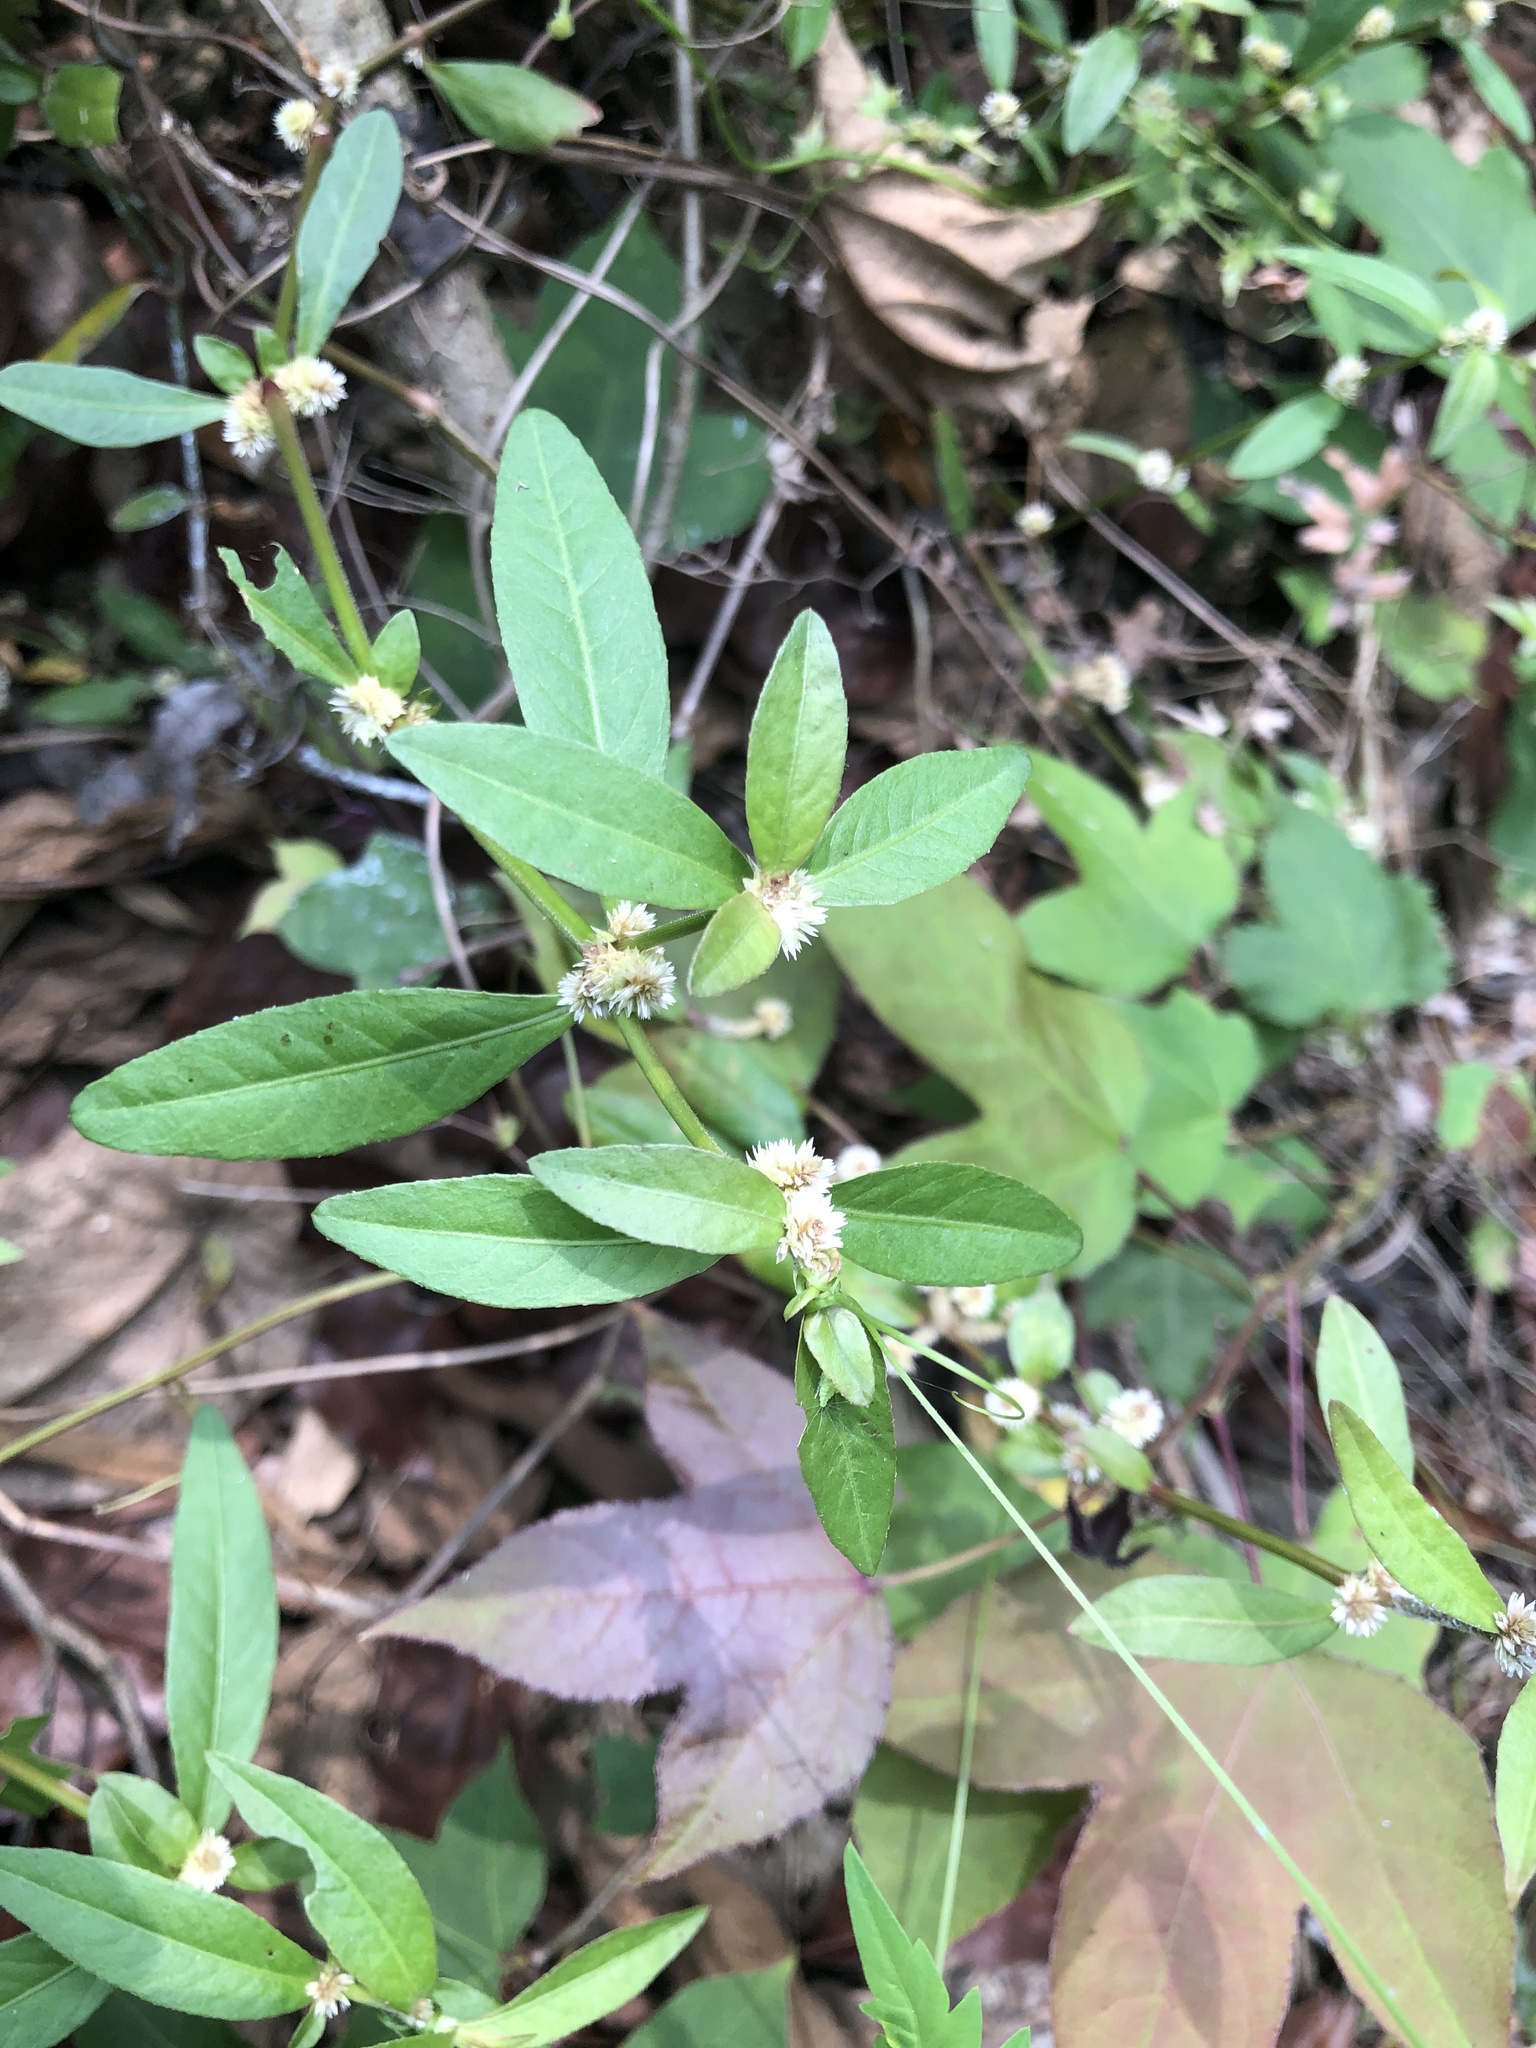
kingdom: Plantae
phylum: Tracheophyta
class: Magnoliopsida
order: Caryophyllales
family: Amaranthaceae
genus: Alternanthera
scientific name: Alternanthera bettzickiana
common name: Calico-plant
